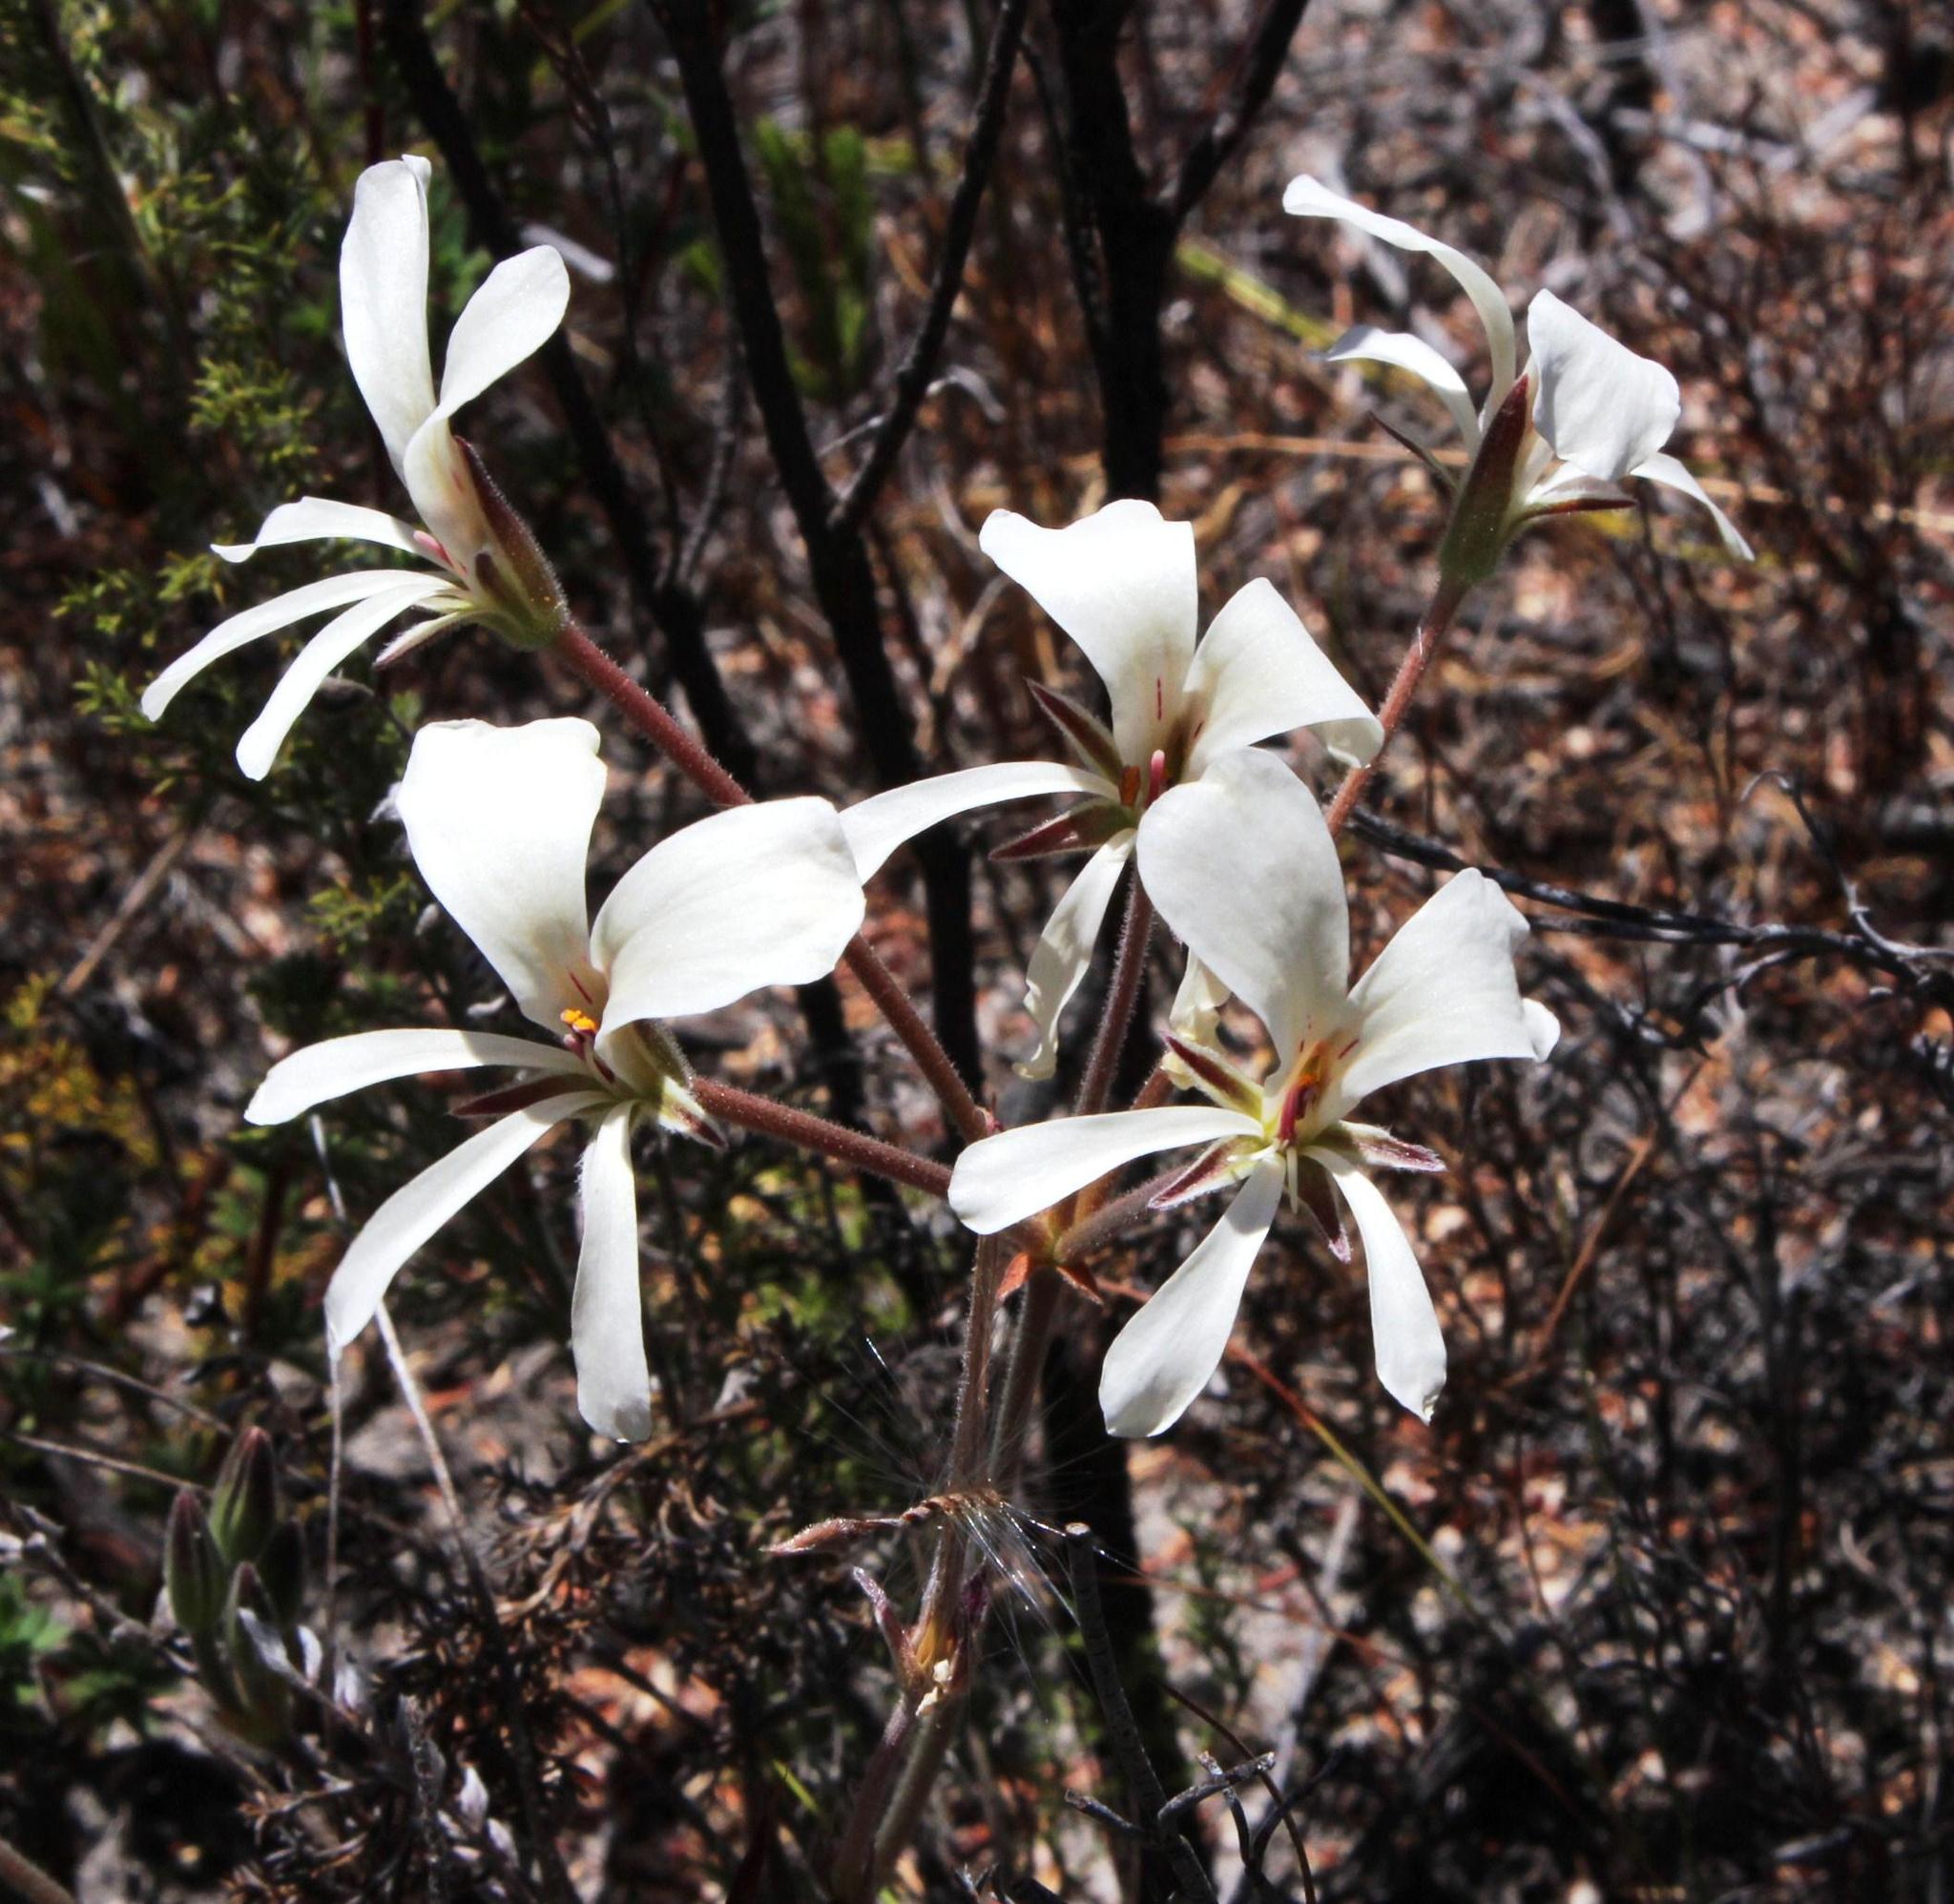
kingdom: Plantae
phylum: Tracheophyta
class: Magnoliopsida
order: Geraniales
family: Geraniaceae
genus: Pelargonium
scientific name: Pelargonium carneum
